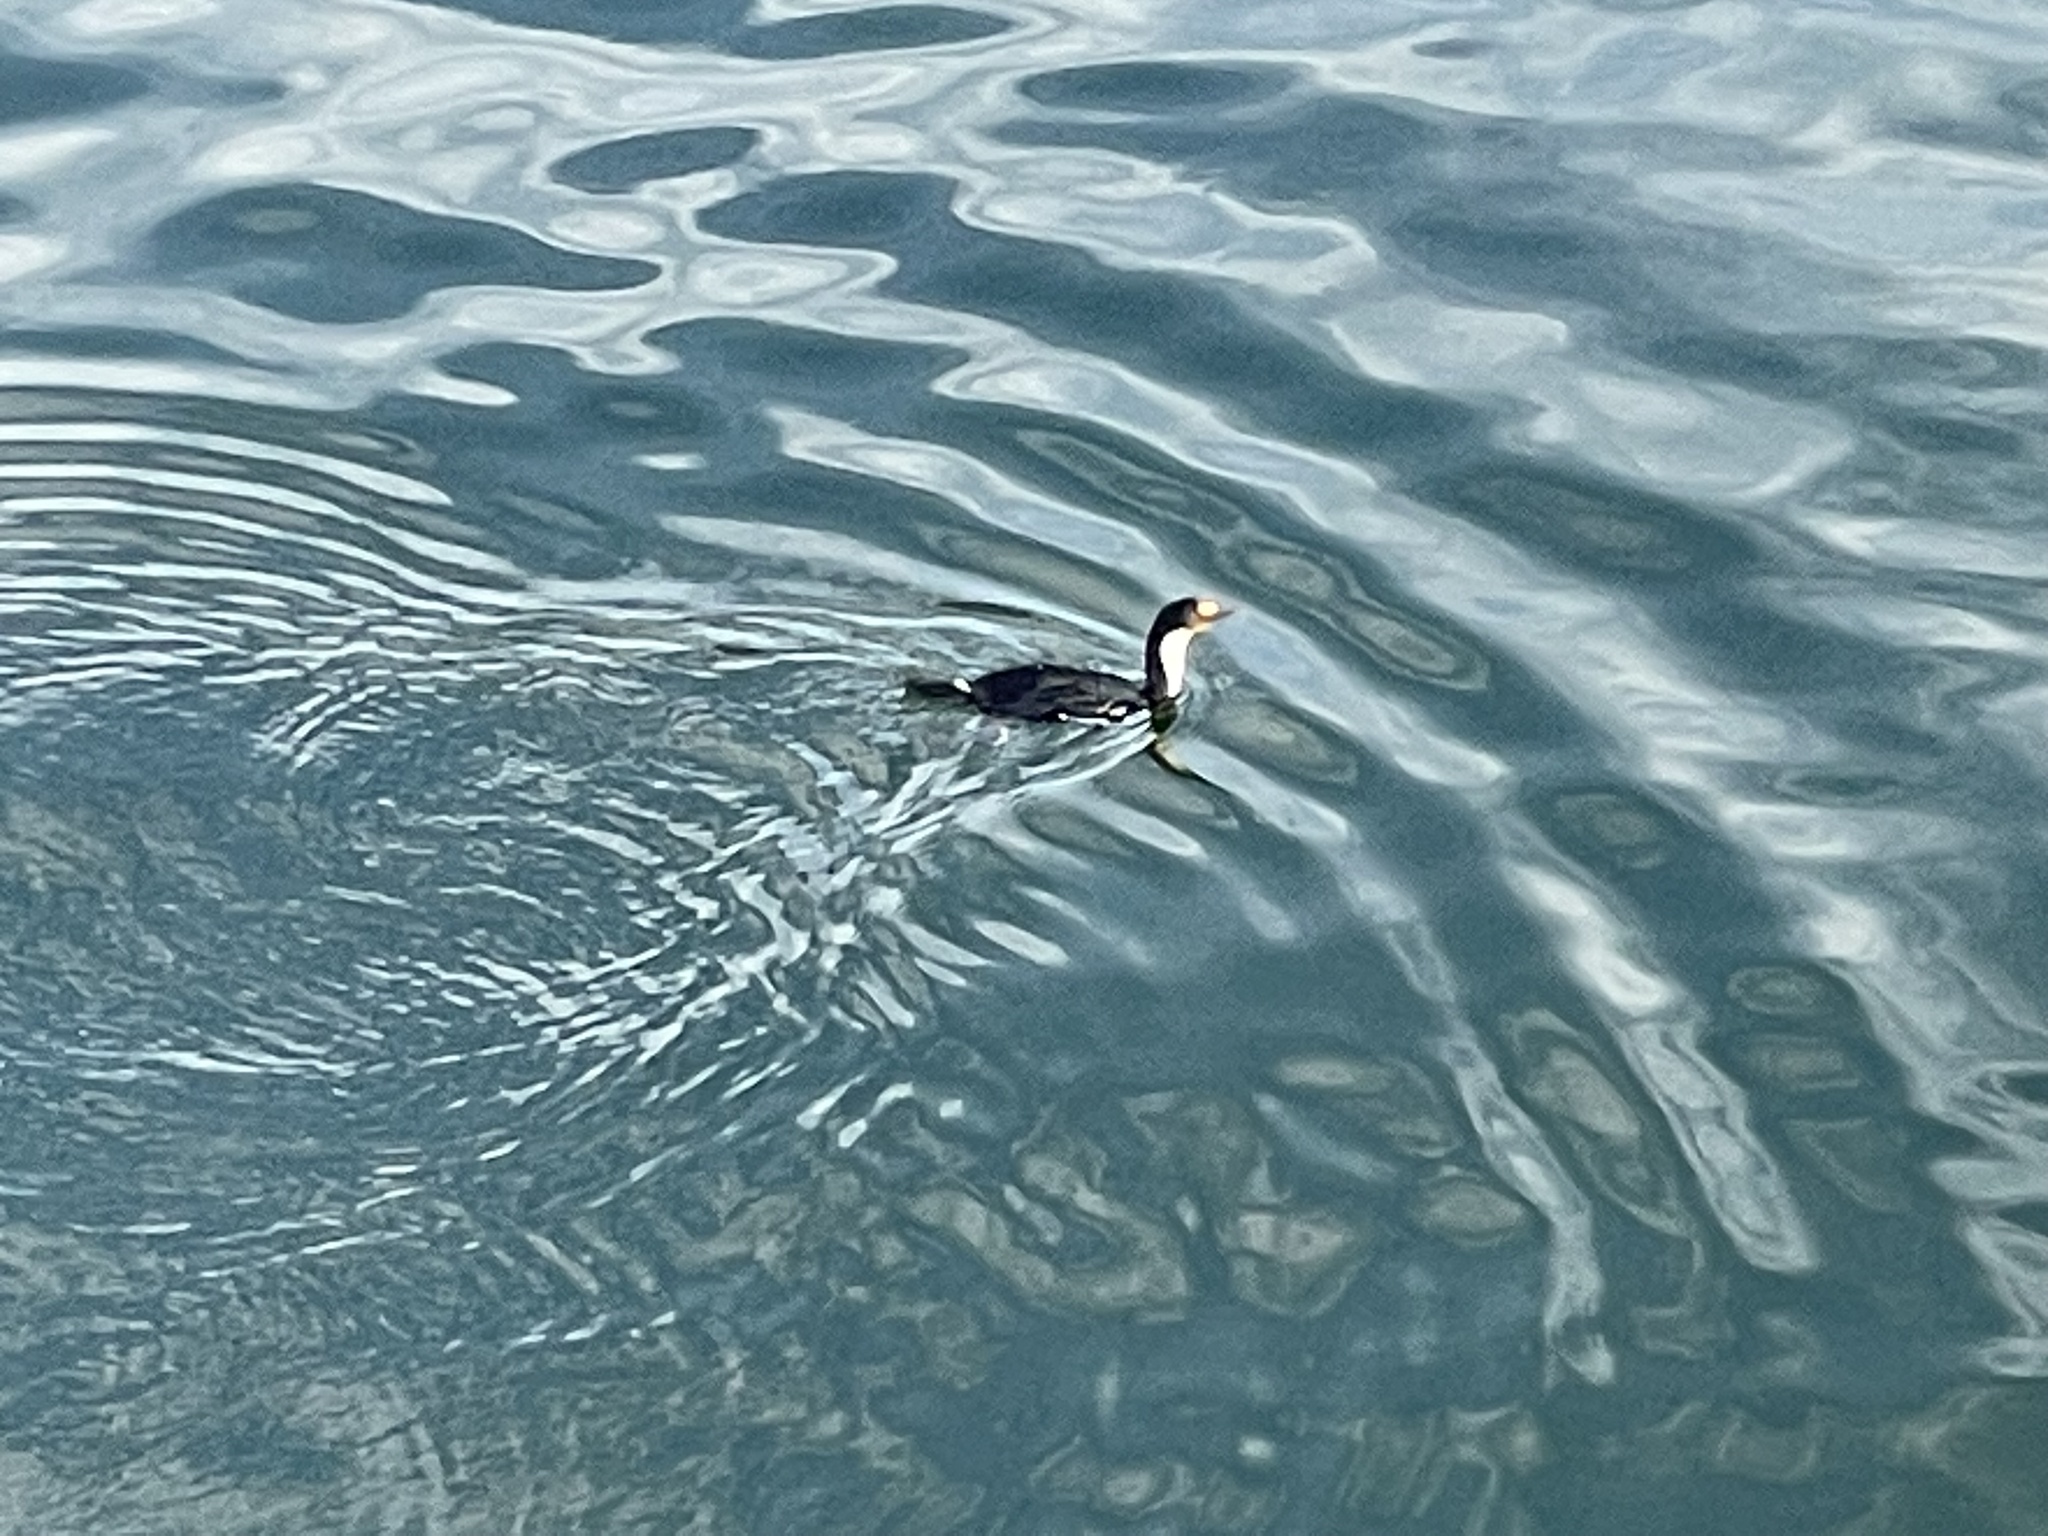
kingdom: Animalia
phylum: Chordata
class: Aves
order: Suliformes
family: Phalacrocoracidae
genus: Leucocarbo
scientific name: Leucocarbo atriceps
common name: Imperial shag
